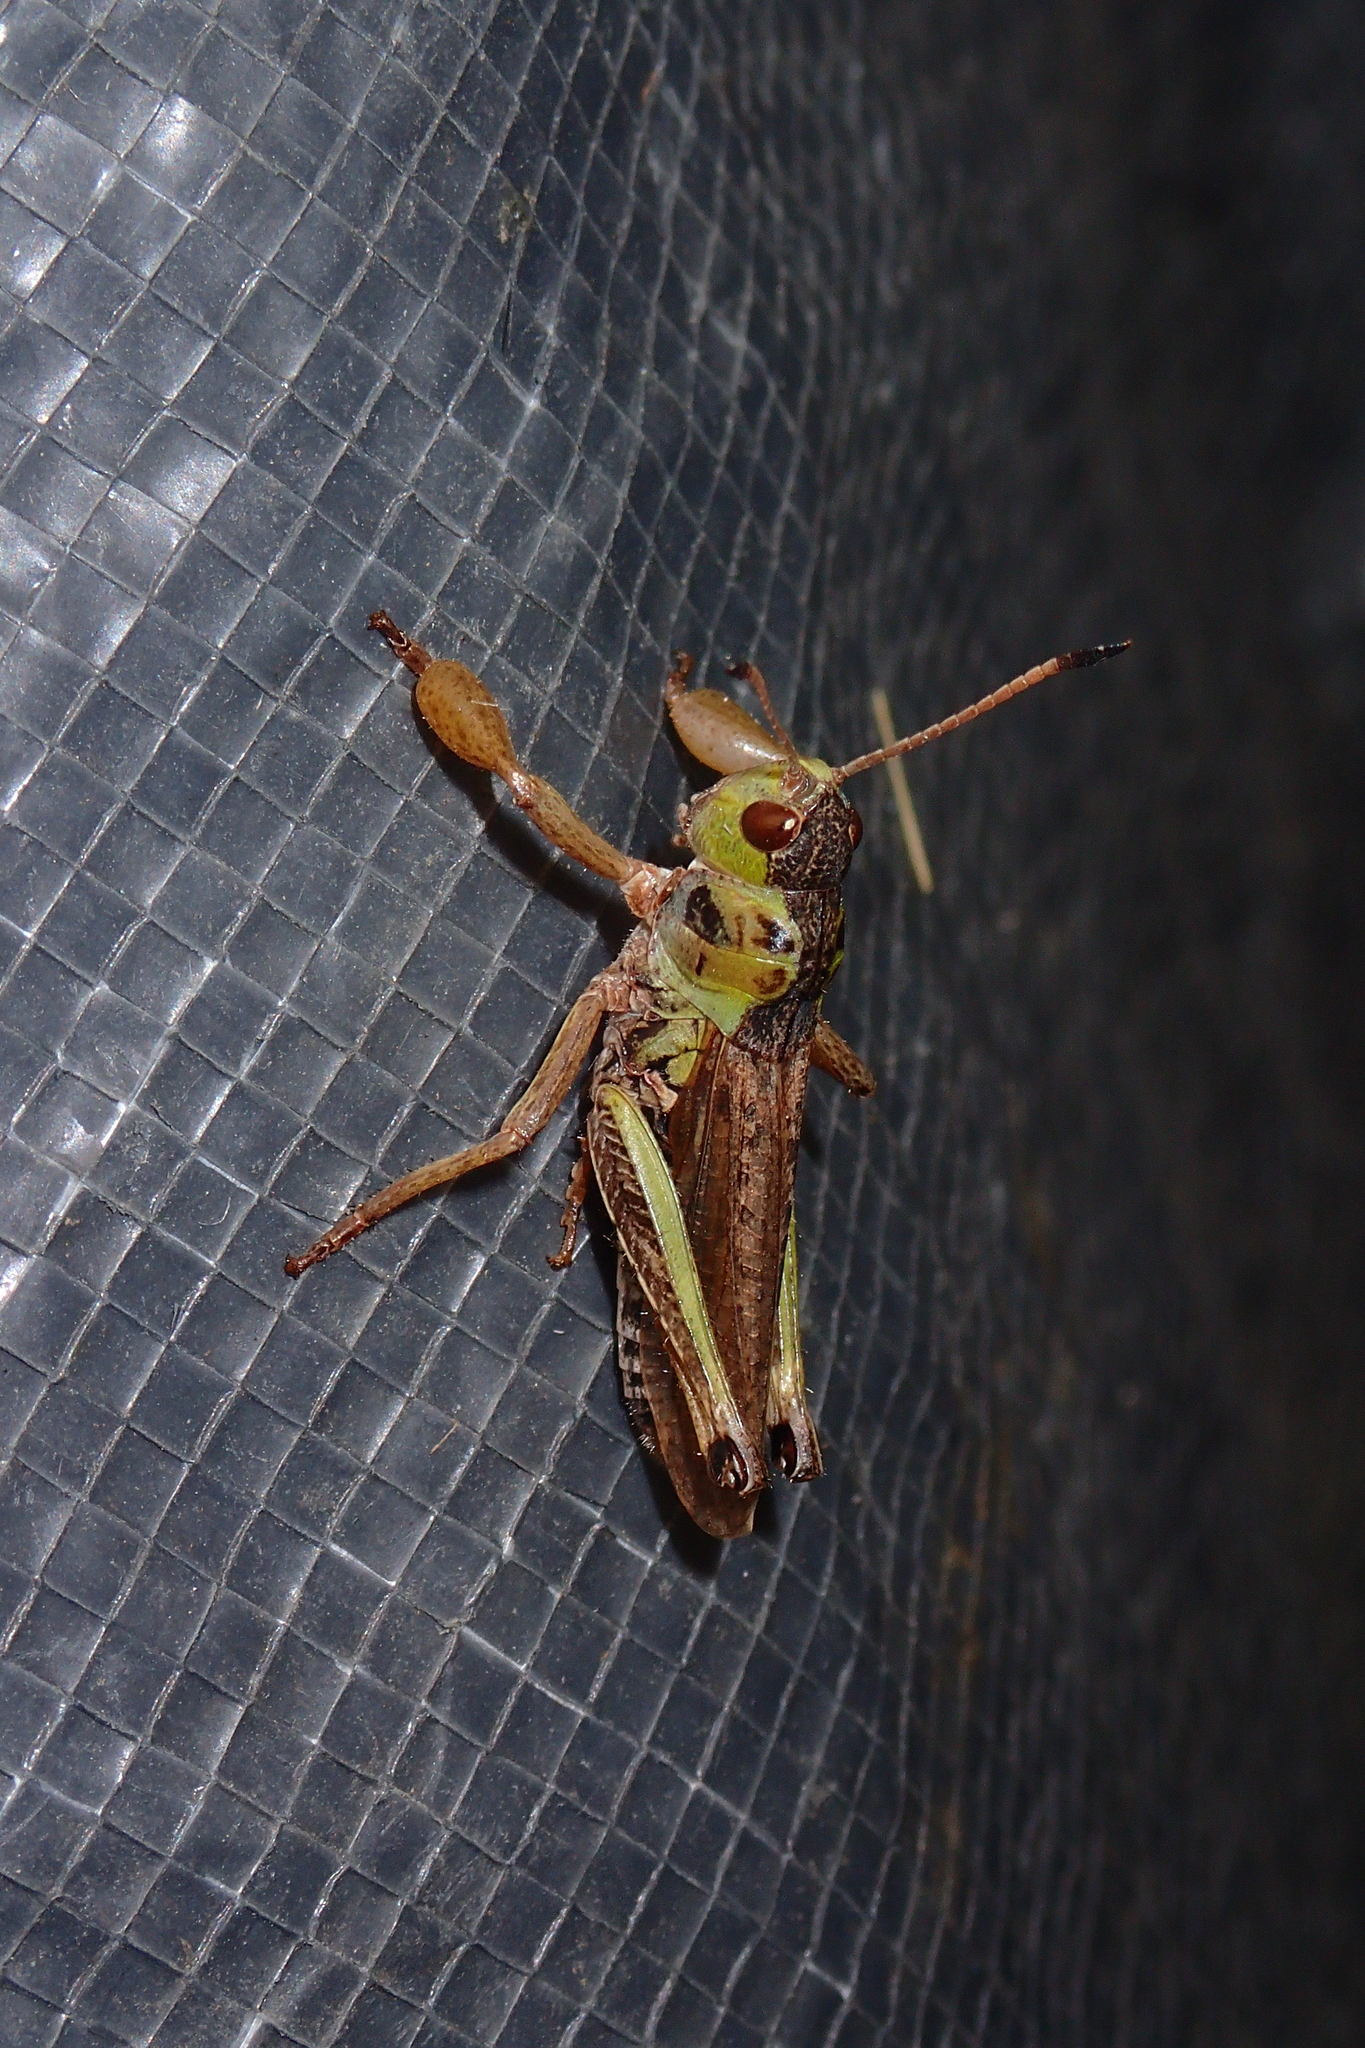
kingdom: Animalia
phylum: Arthropoda
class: Insecta
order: Orthoptera
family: Acrididae
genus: Gomphocerus
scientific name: Gomphocerus sibiricus
